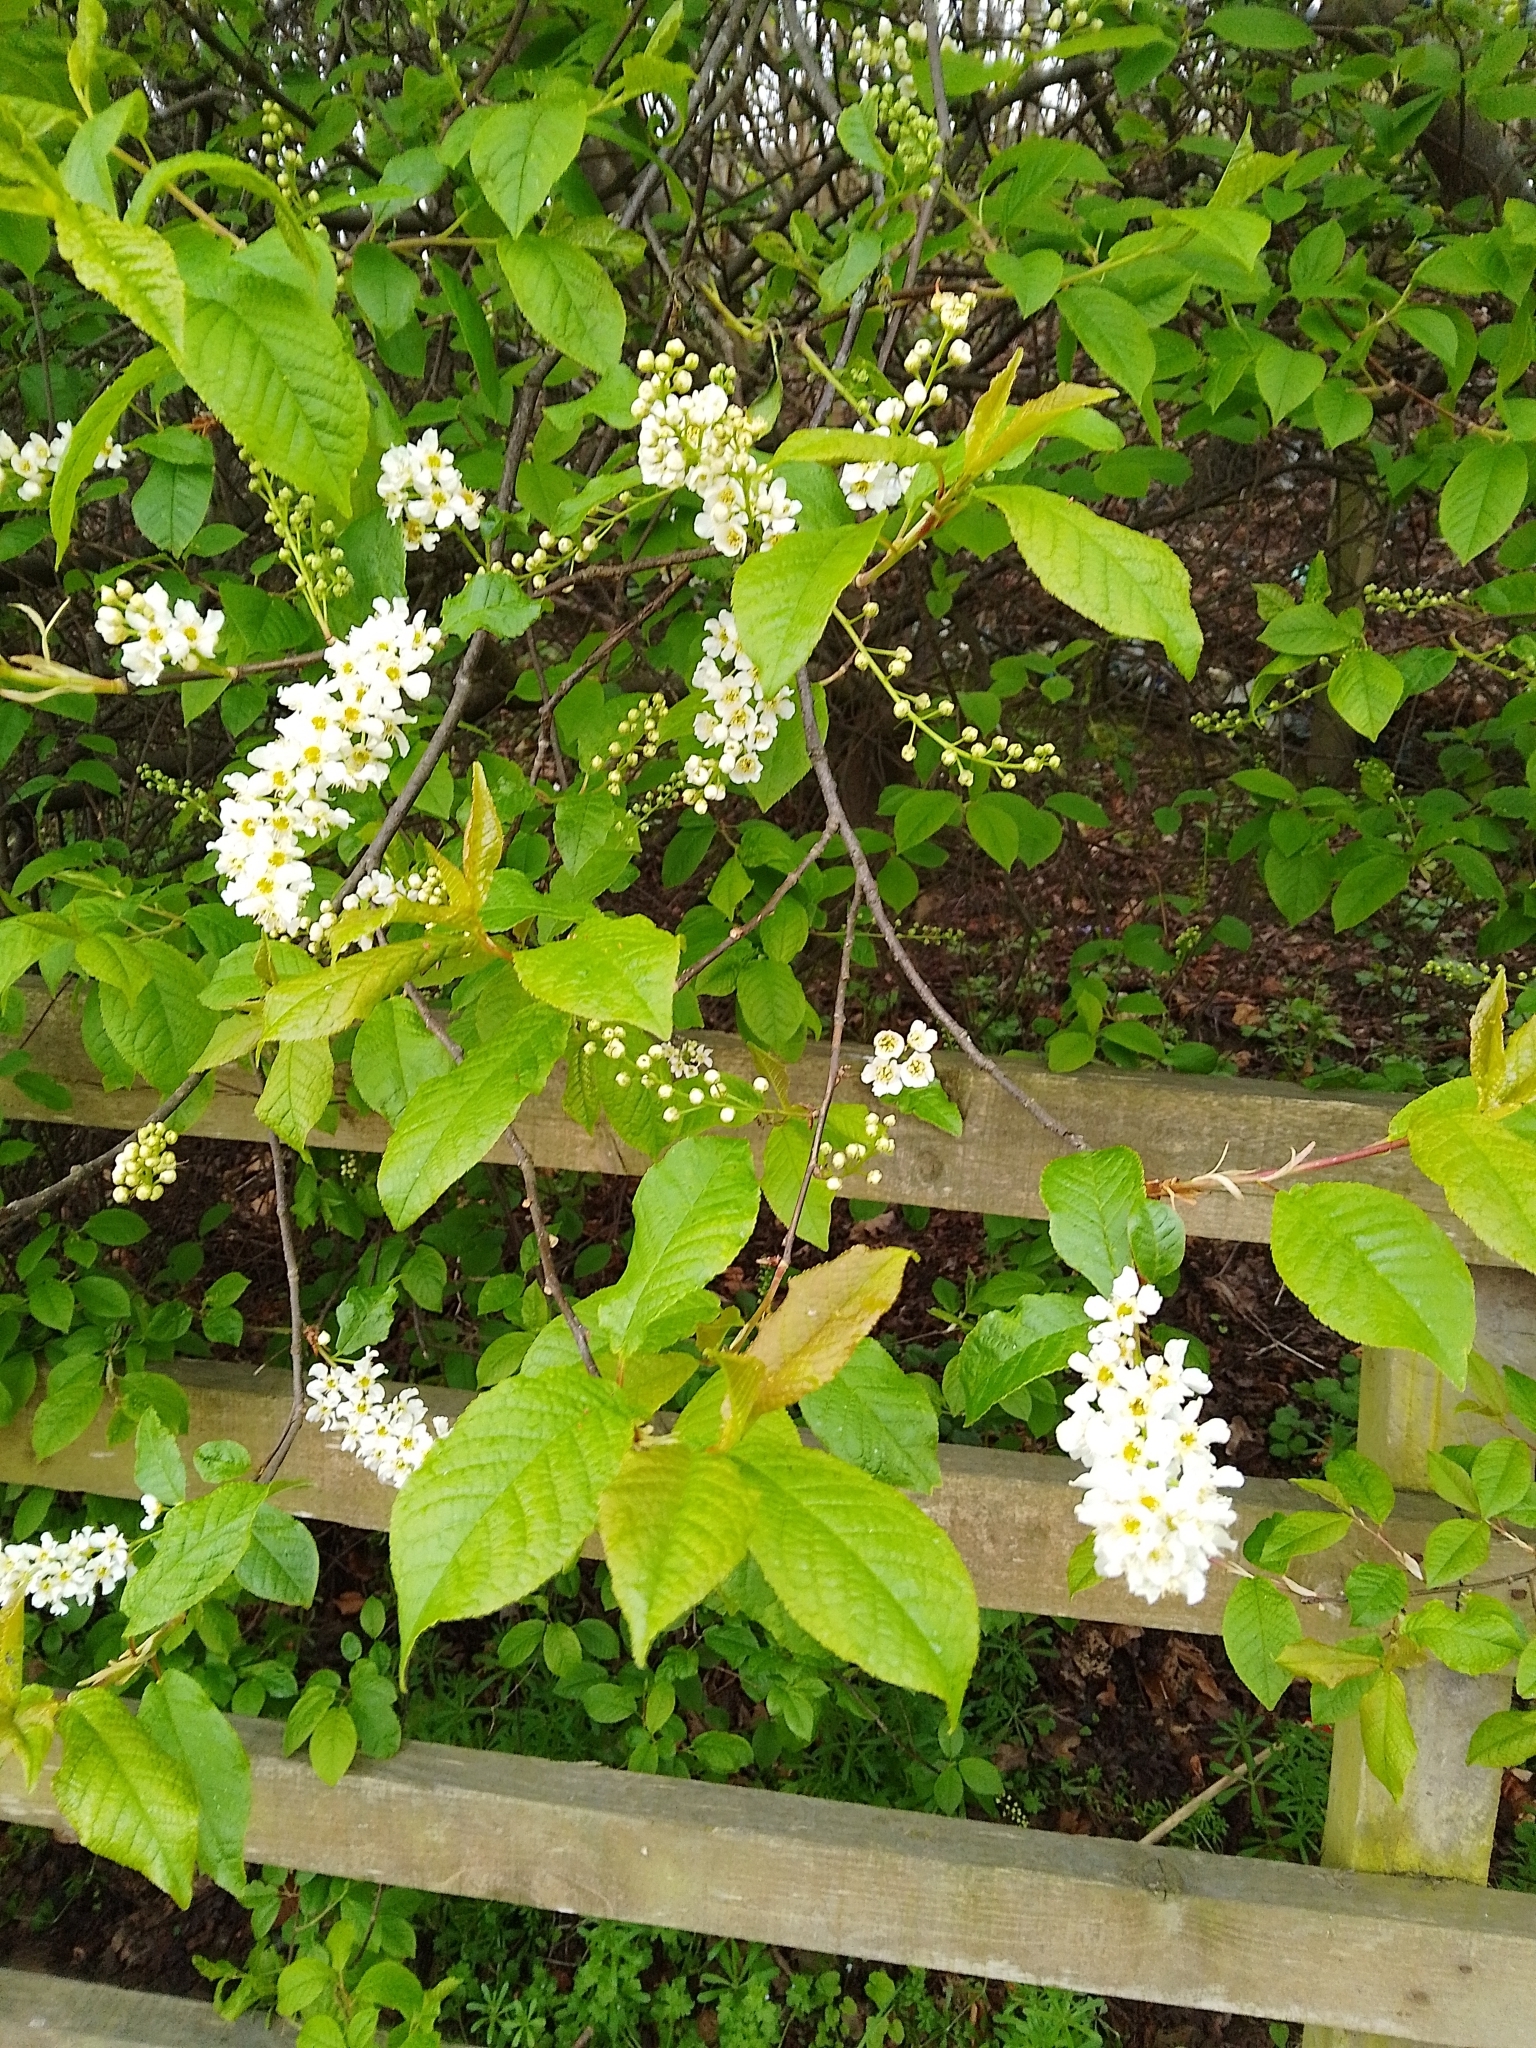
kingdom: Plantae
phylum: Tracheophyta
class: Magnoliopsida
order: Rosales
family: Rosaceae
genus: Prunus
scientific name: Prunus padus
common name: Bird cherry
